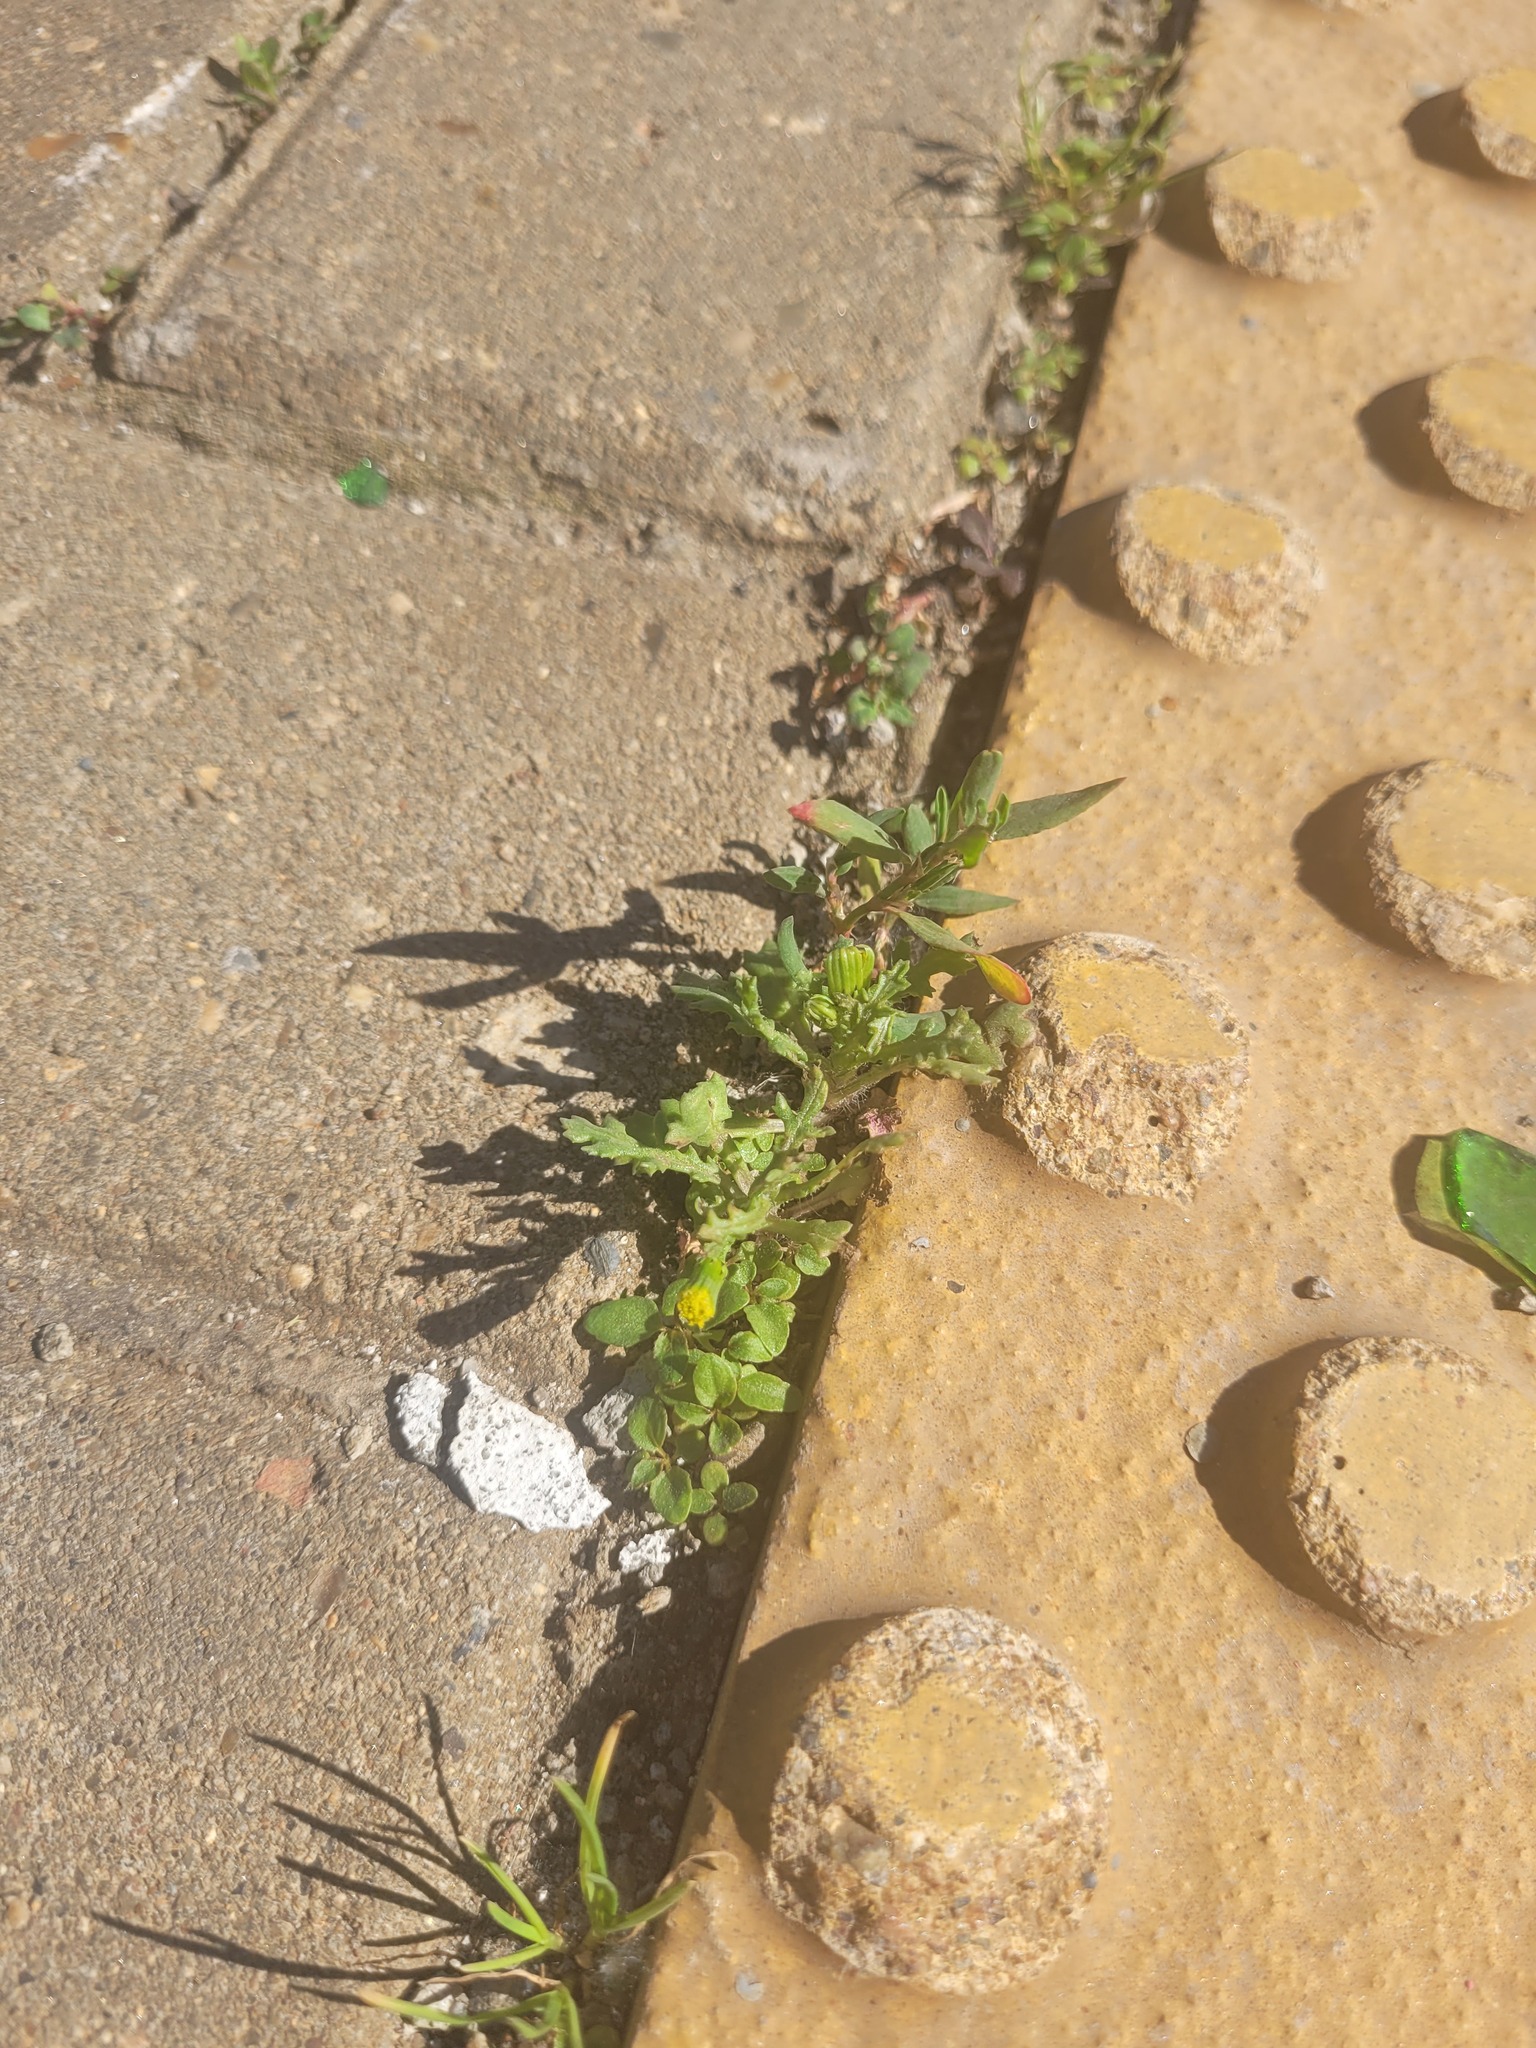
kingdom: Plantae
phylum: Tracheophyta
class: Magnoliopsida
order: Asterales
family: Asteraceae
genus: Senecio
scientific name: Senecio vulgaris
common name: Old-man-in-the-spring
